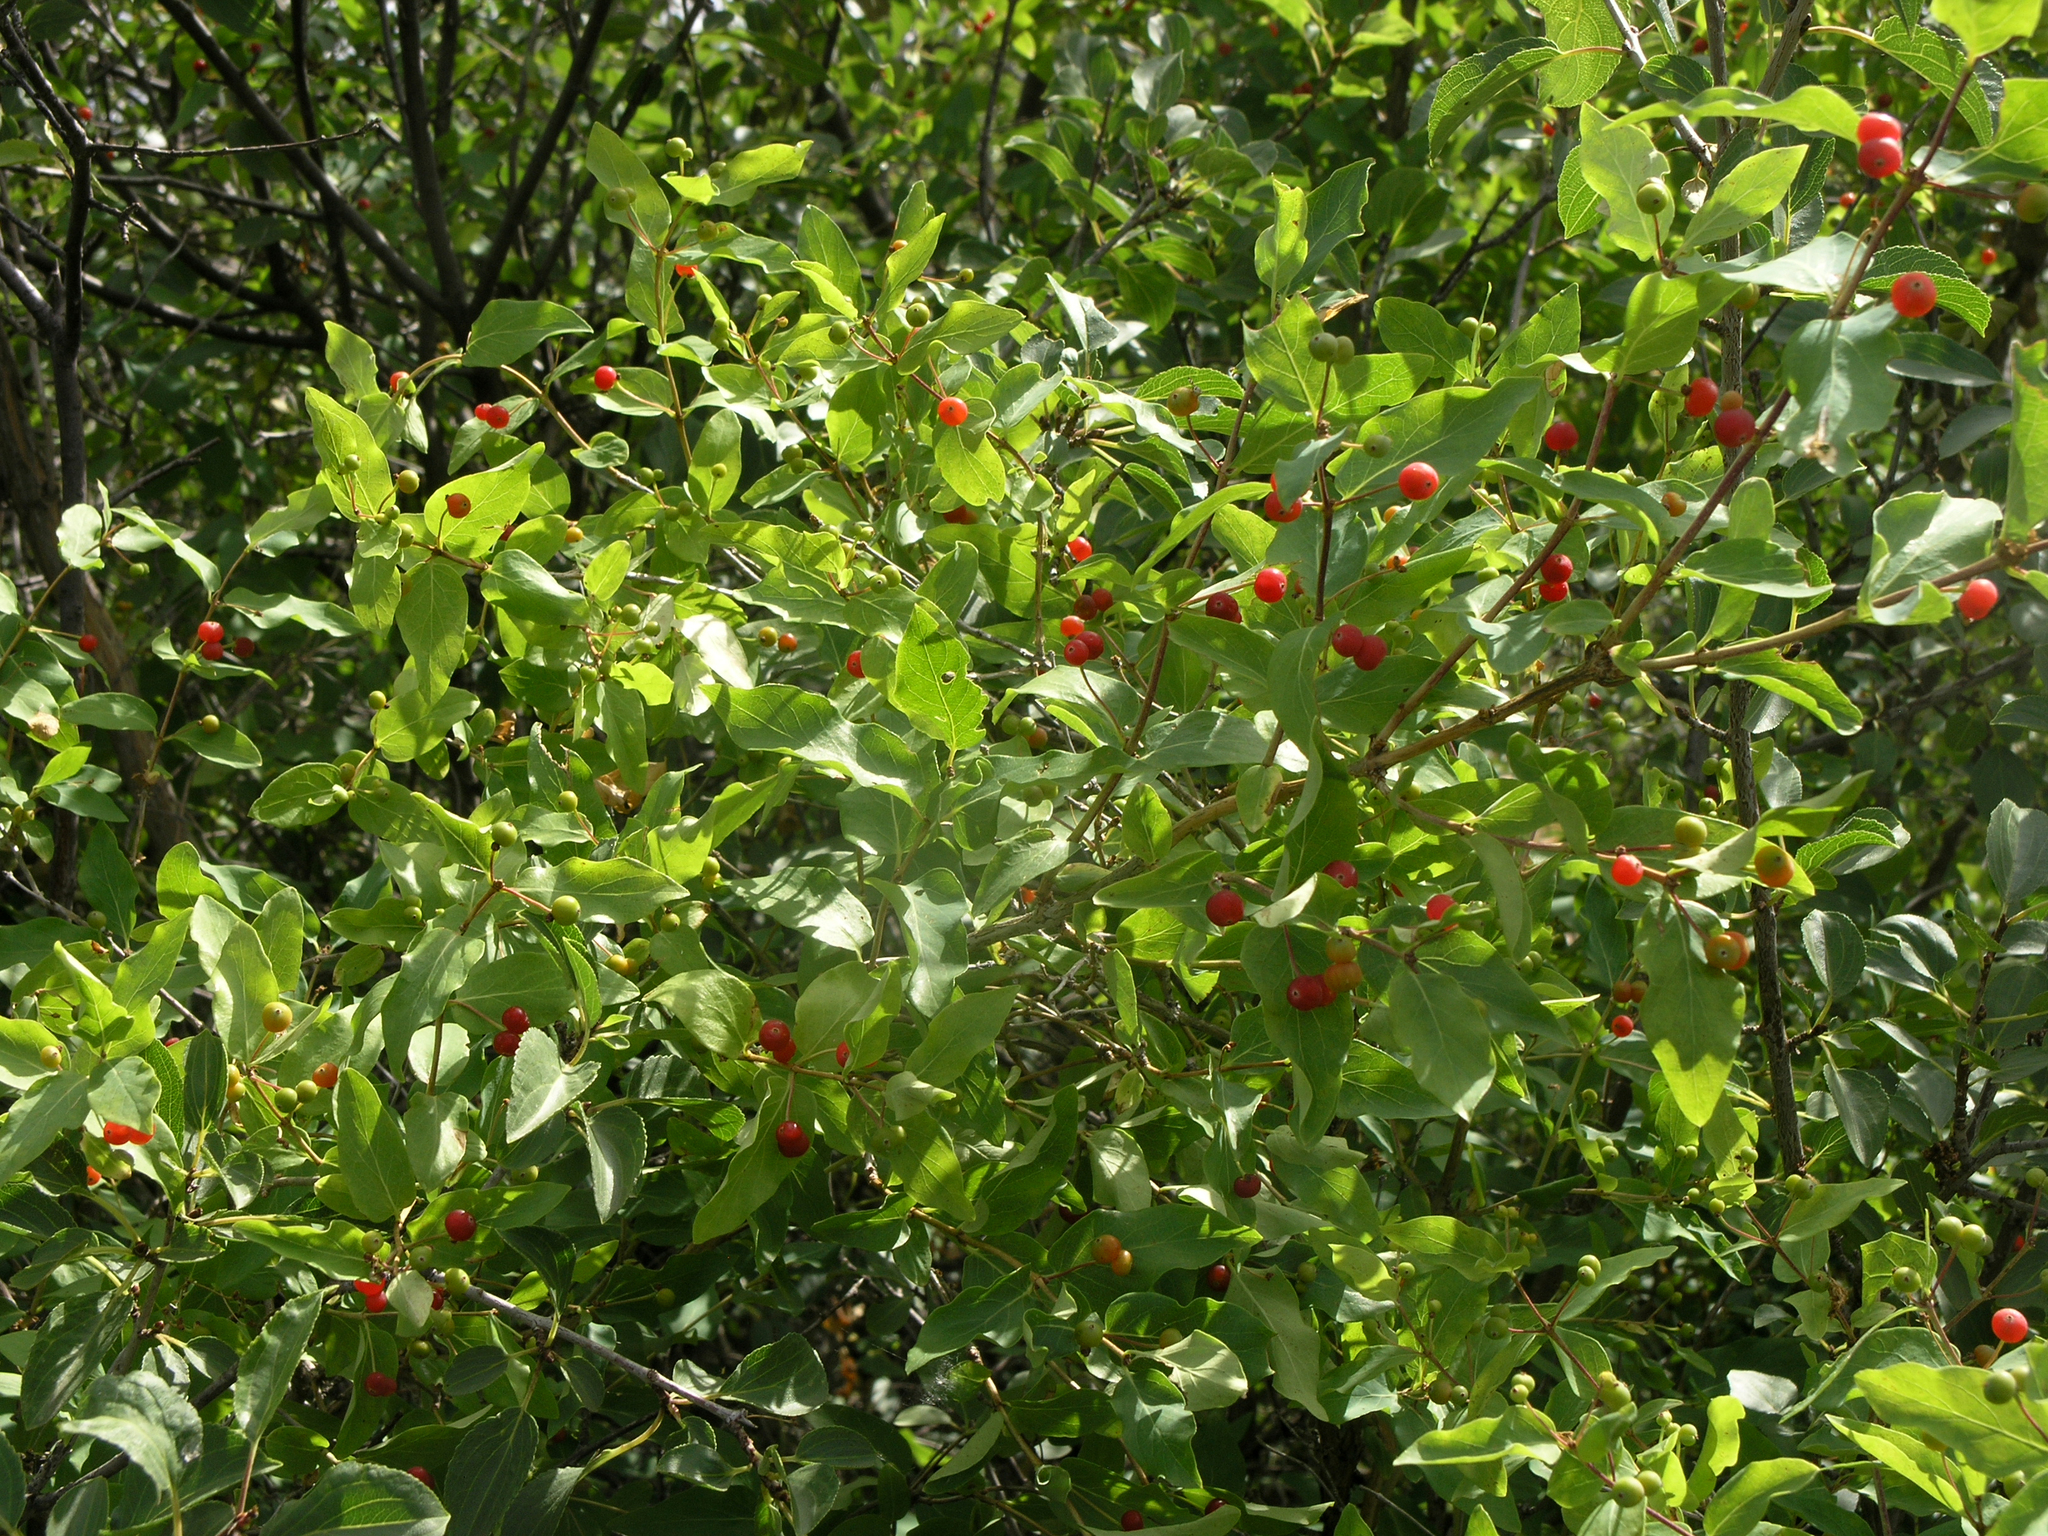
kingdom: Plantae
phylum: Tracheophyta
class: Magnoliopsida
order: Dipsacales
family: Caprifoliaceae
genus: Lonicera
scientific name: Lonicera tatarica
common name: Tatarian honeysuckle
